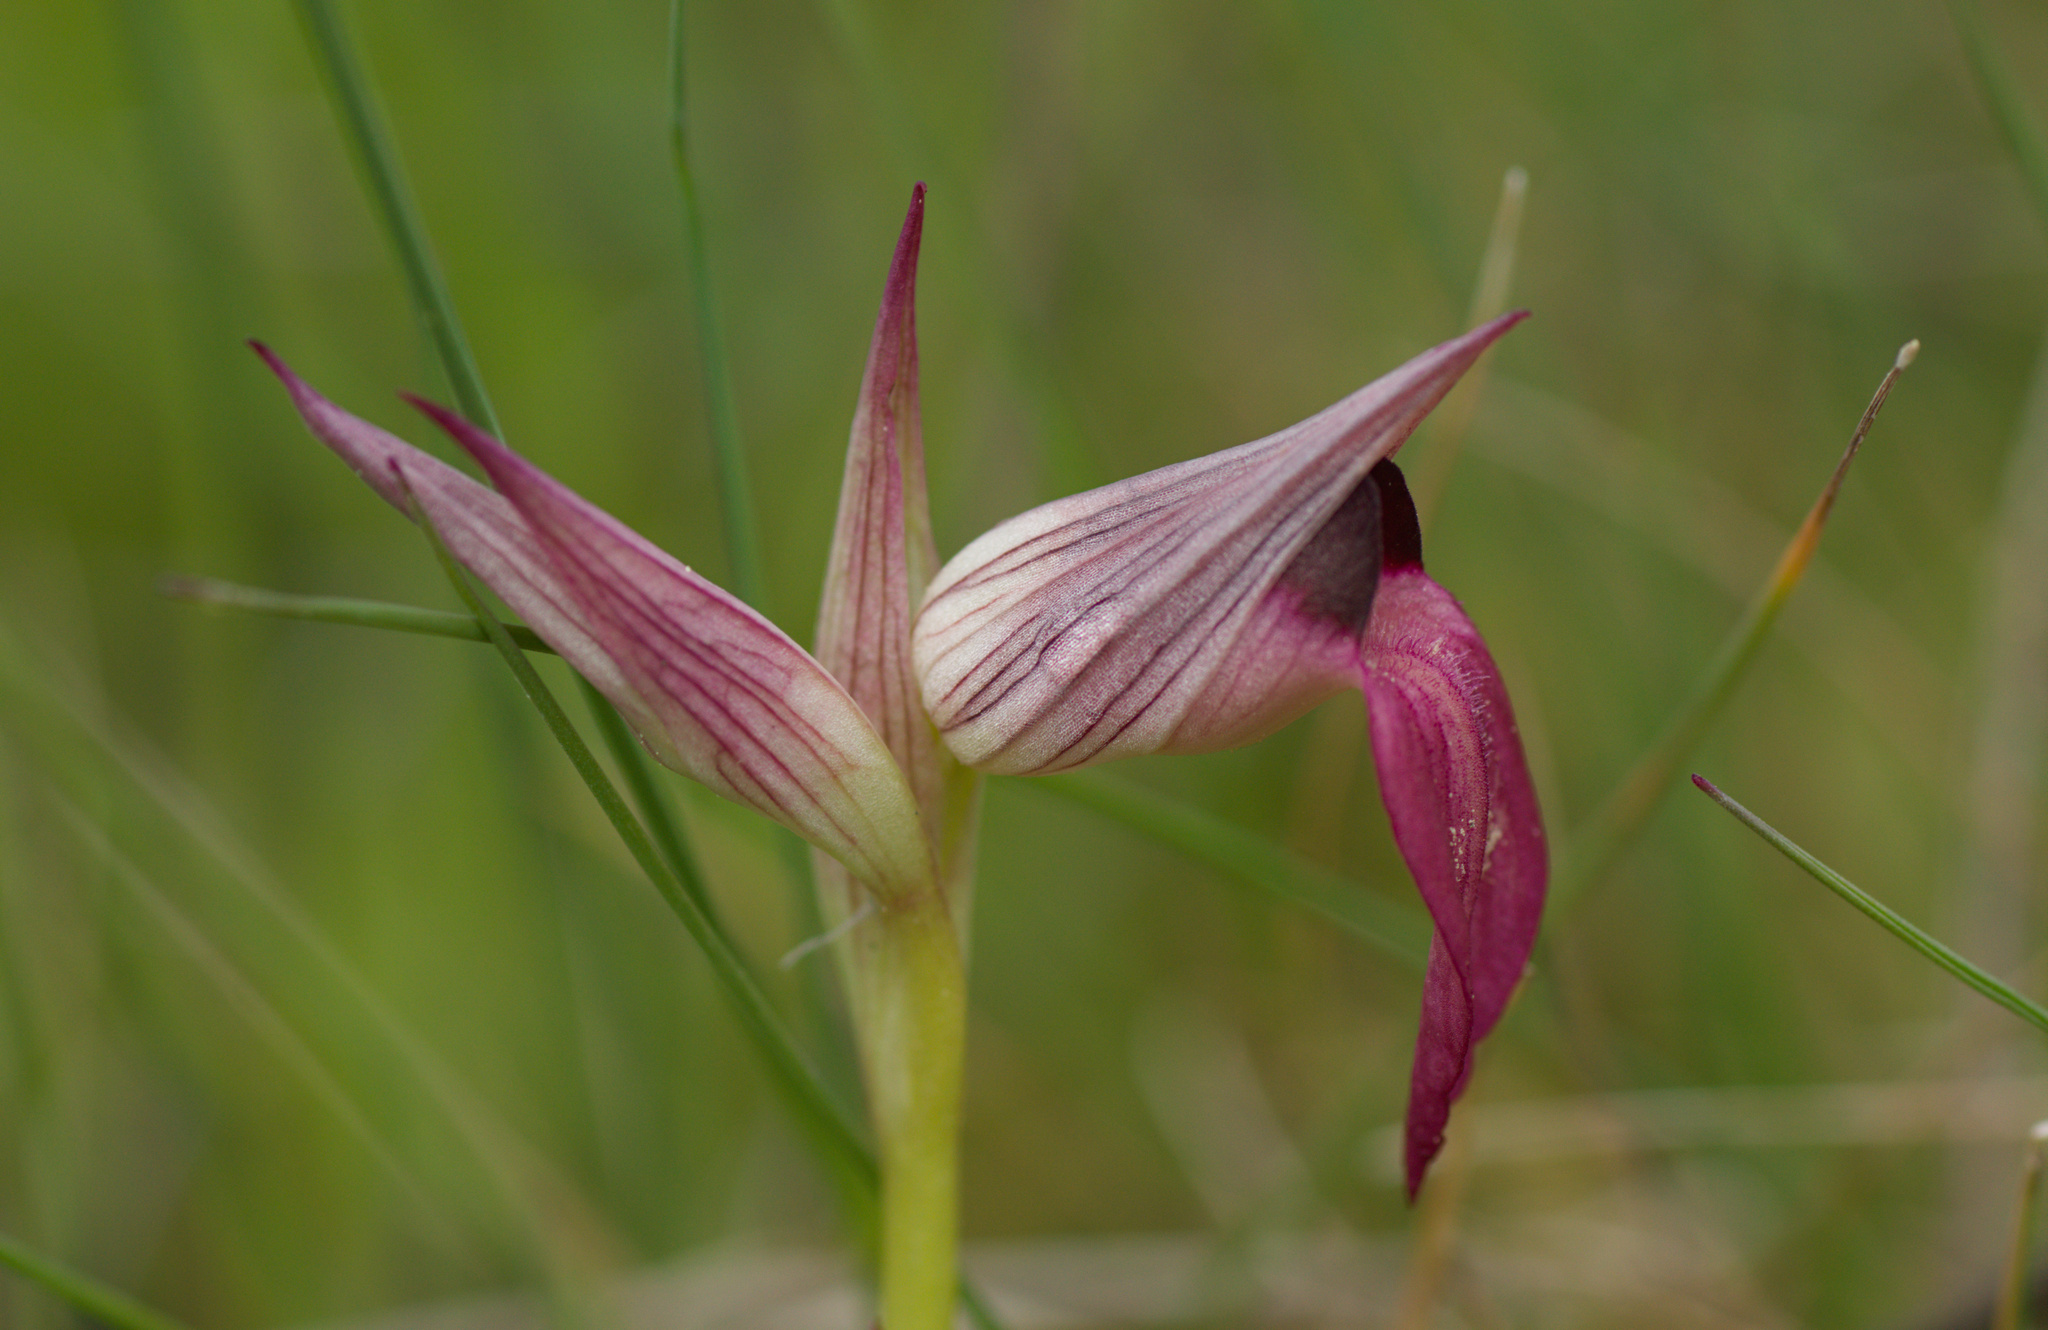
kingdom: Plantae
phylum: Tracheophyta
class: Liliopsida
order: Asparagales
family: Orchidaceae
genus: Serapias
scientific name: Serapias lingua
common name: Tongue-orchid
